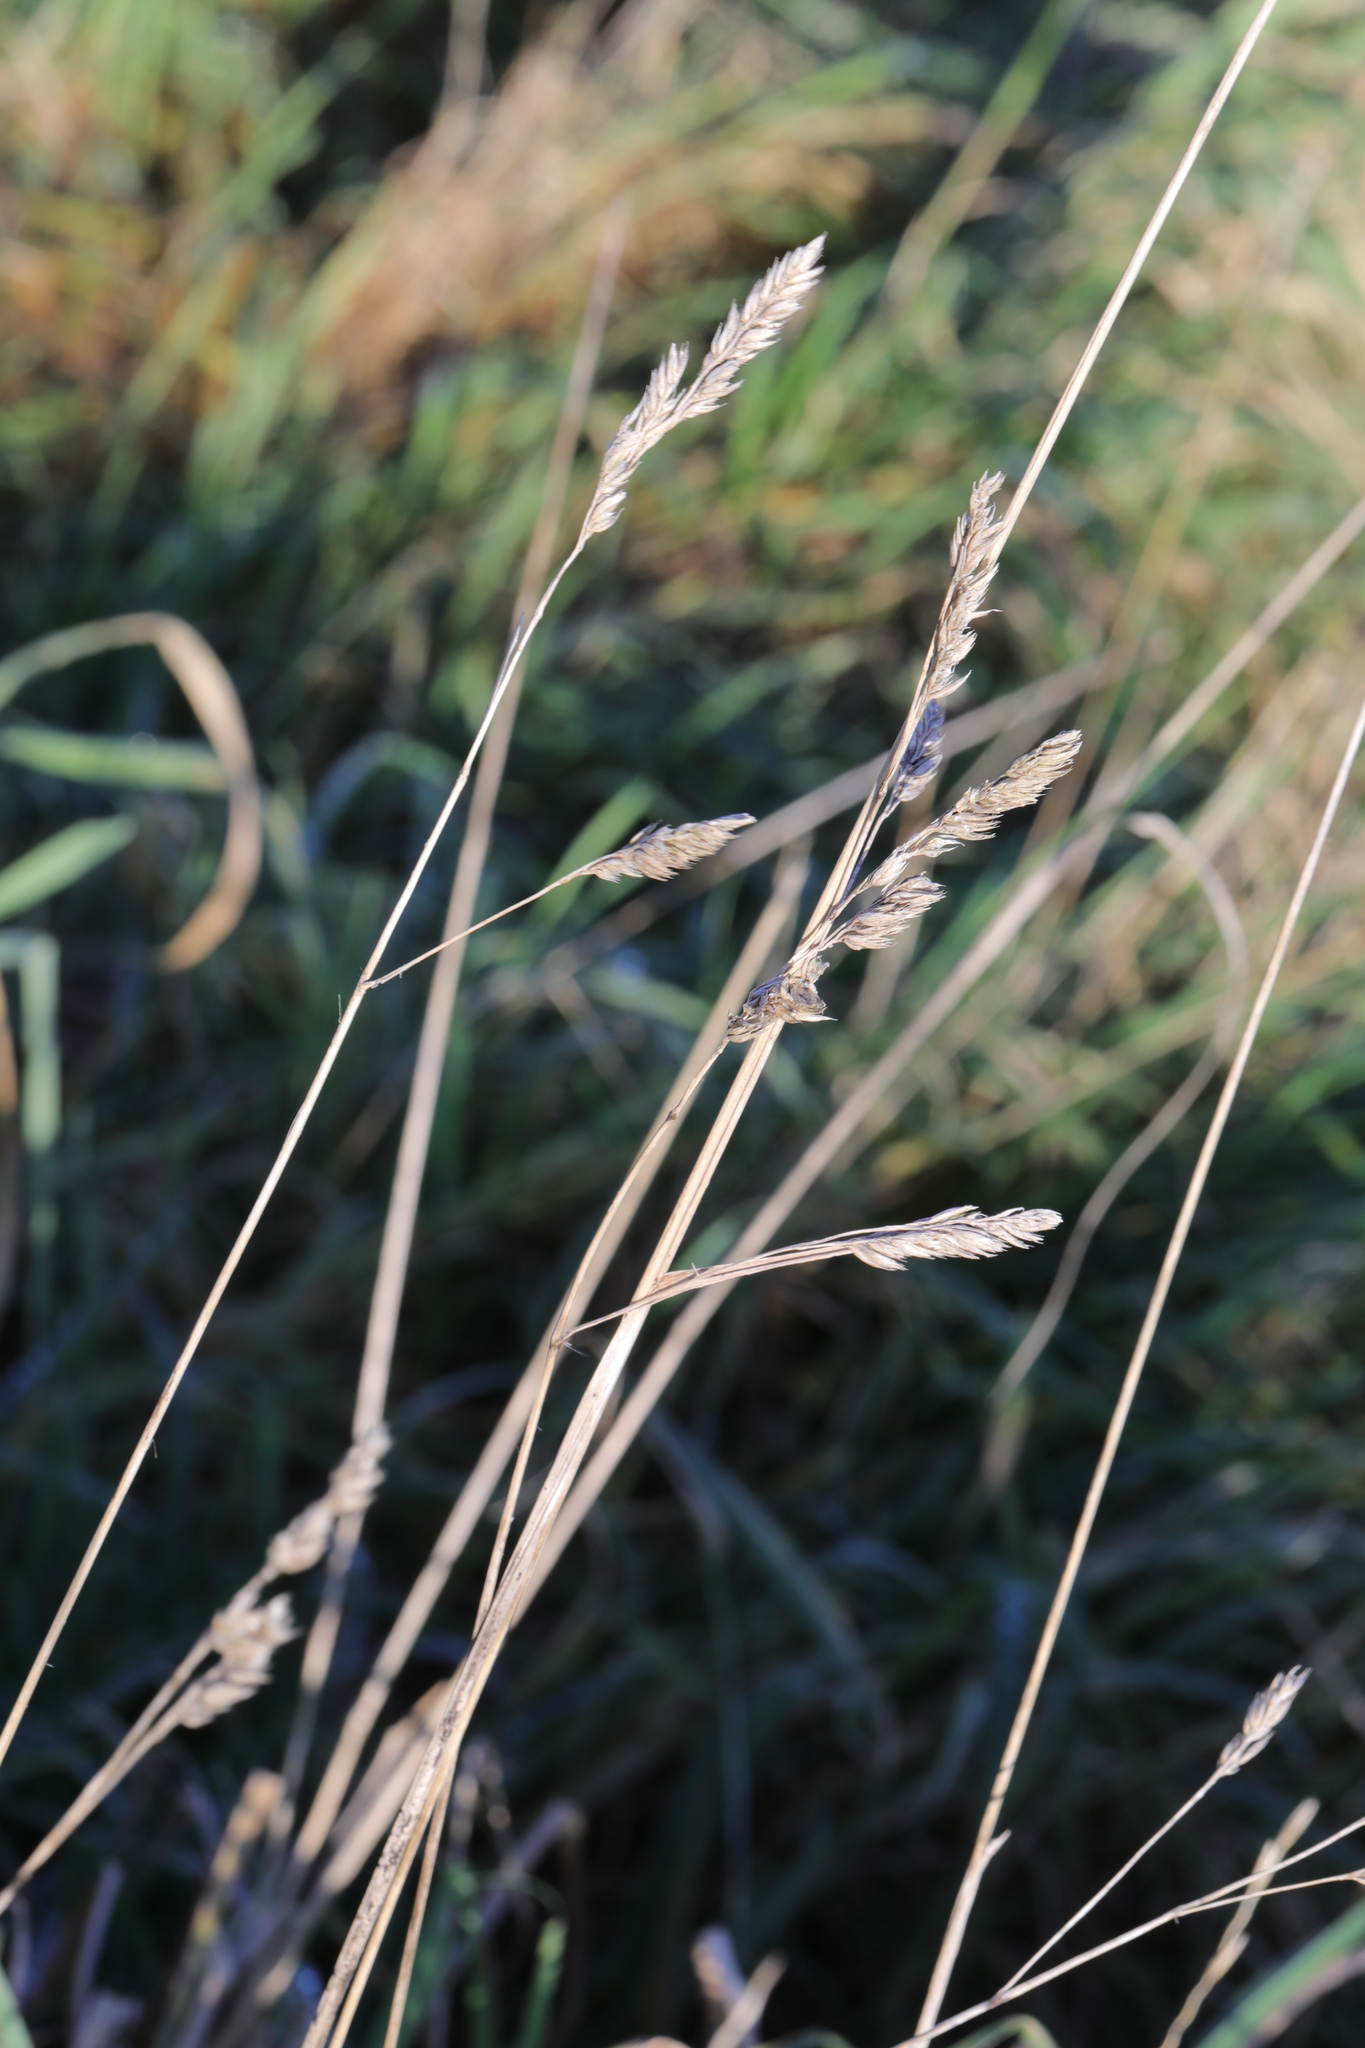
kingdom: Plantae
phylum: Tracheophyta
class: Liliopsida
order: Poales
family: Poaceae
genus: Dactylis
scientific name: Dactylis glomerata
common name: Orchardgrass
